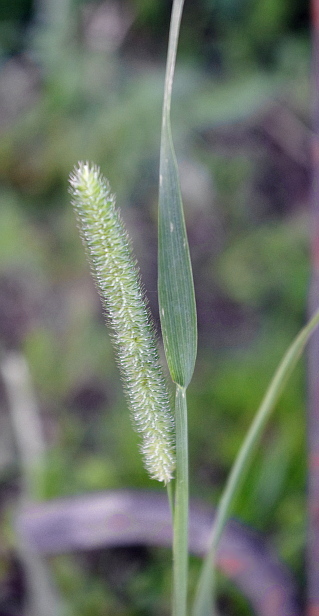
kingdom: Plantae
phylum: Tracheophyta
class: Liliopsida
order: Poales
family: Poaceae
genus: Phleum
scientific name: Phleum pratense
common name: Timothy grass
